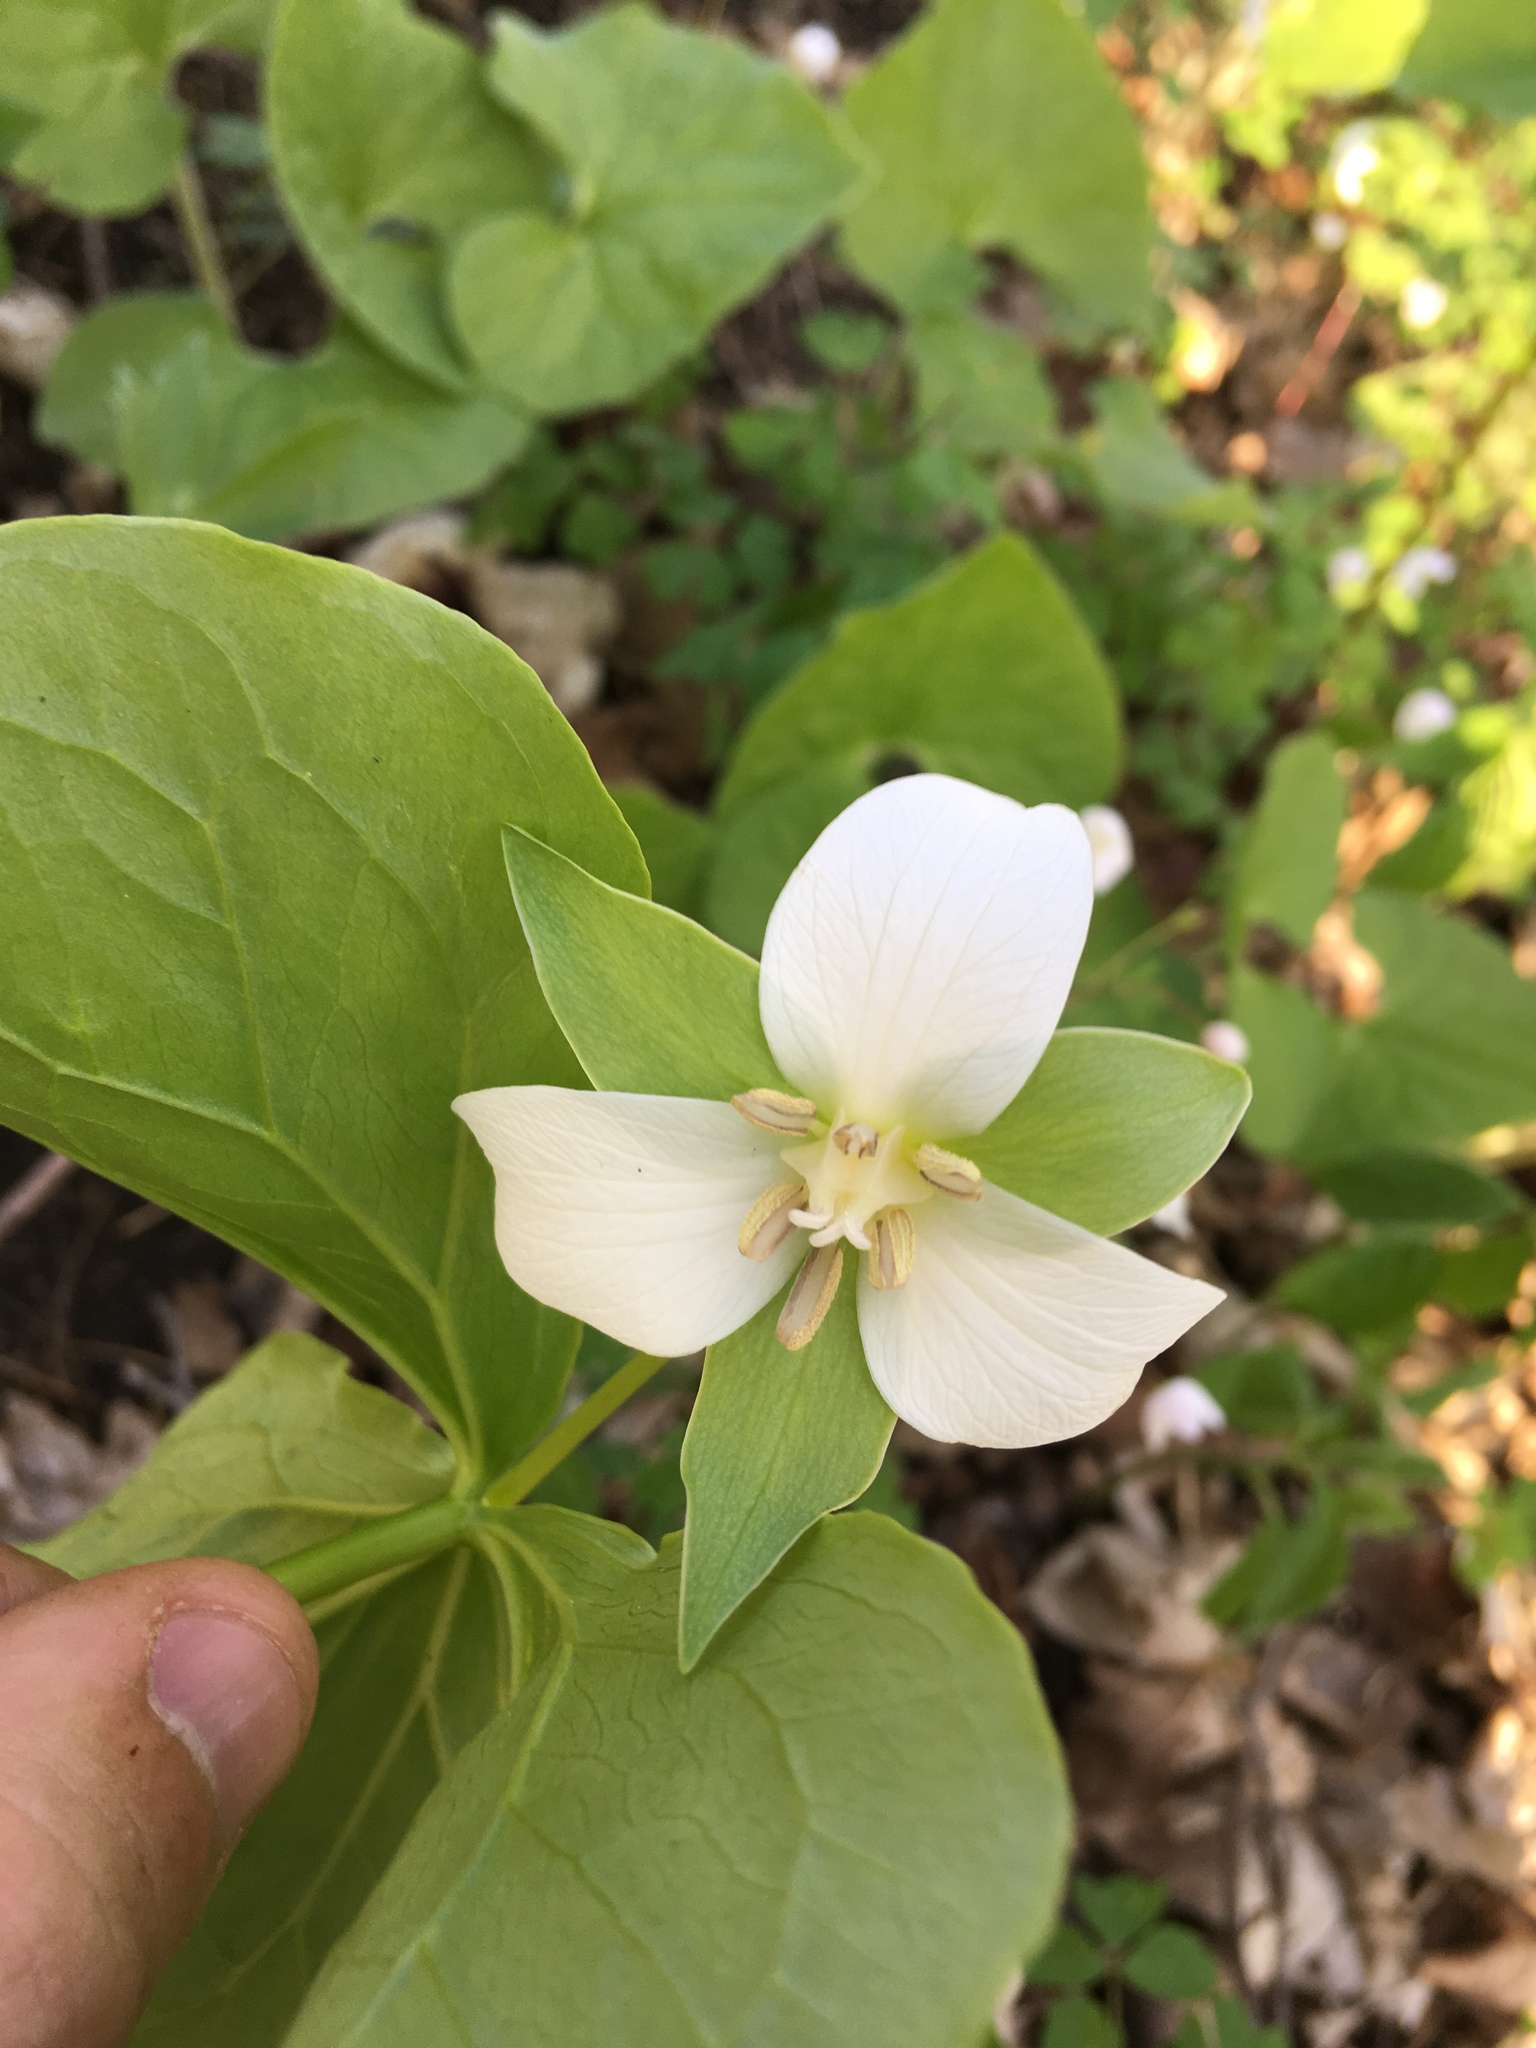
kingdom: Plantae
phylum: Tracheophyta
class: Liliopsida
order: Liliales
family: Melanthiaceae
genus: Trillium
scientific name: Trillium flexipes
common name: Drooping trillium
